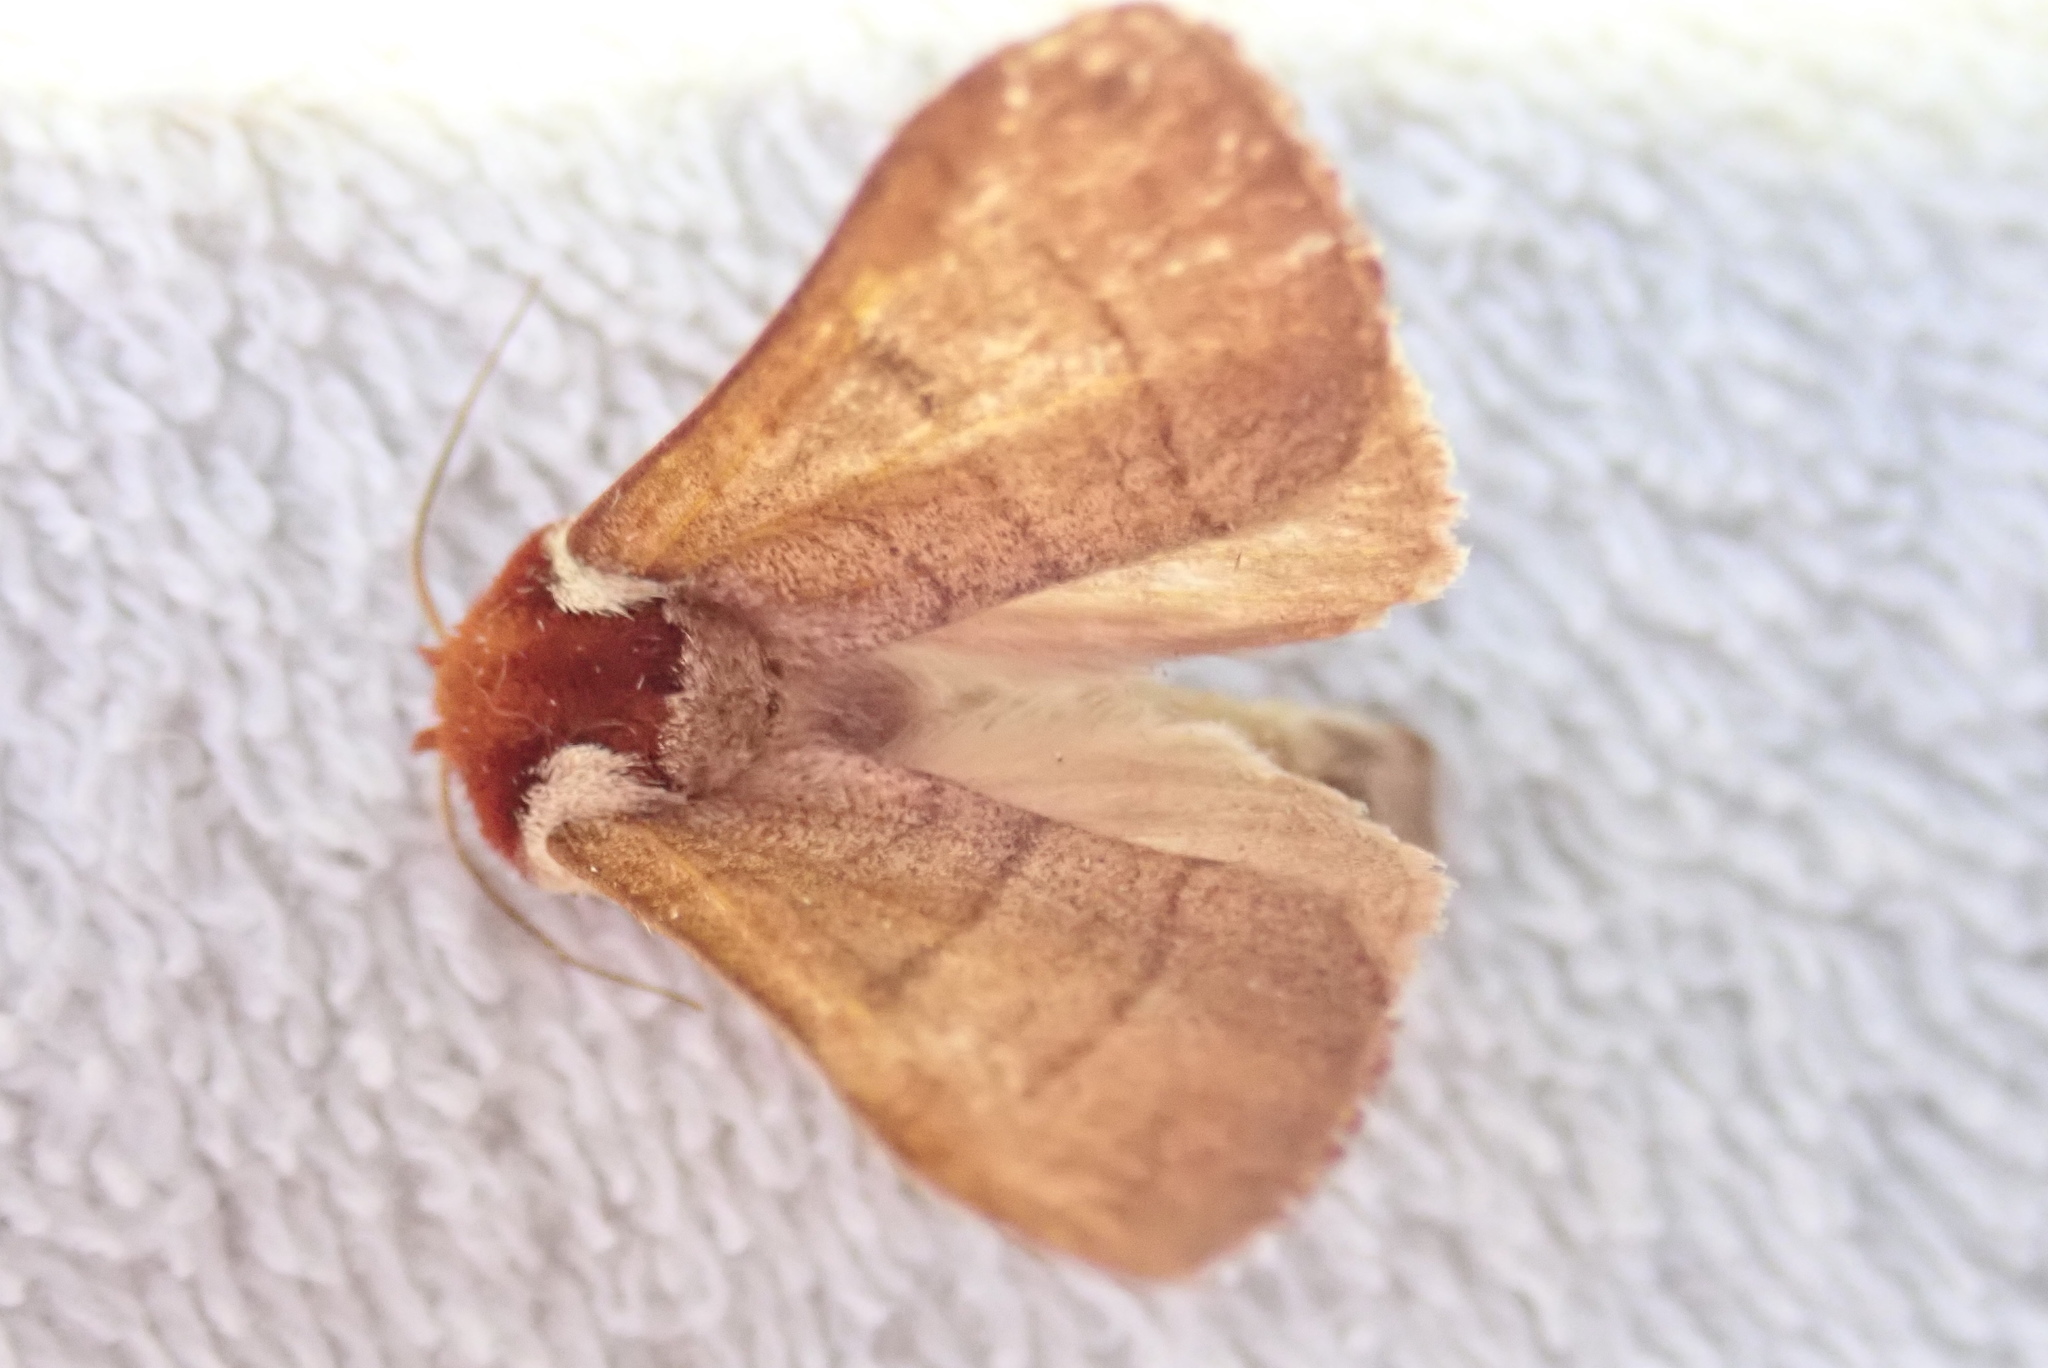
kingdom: Animalia
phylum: Arthropoda
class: Insecta
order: Lepidoptera
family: Notodontidae
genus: Datana
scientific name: Datana ministra
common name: Yellow-necked caterpillar moth
